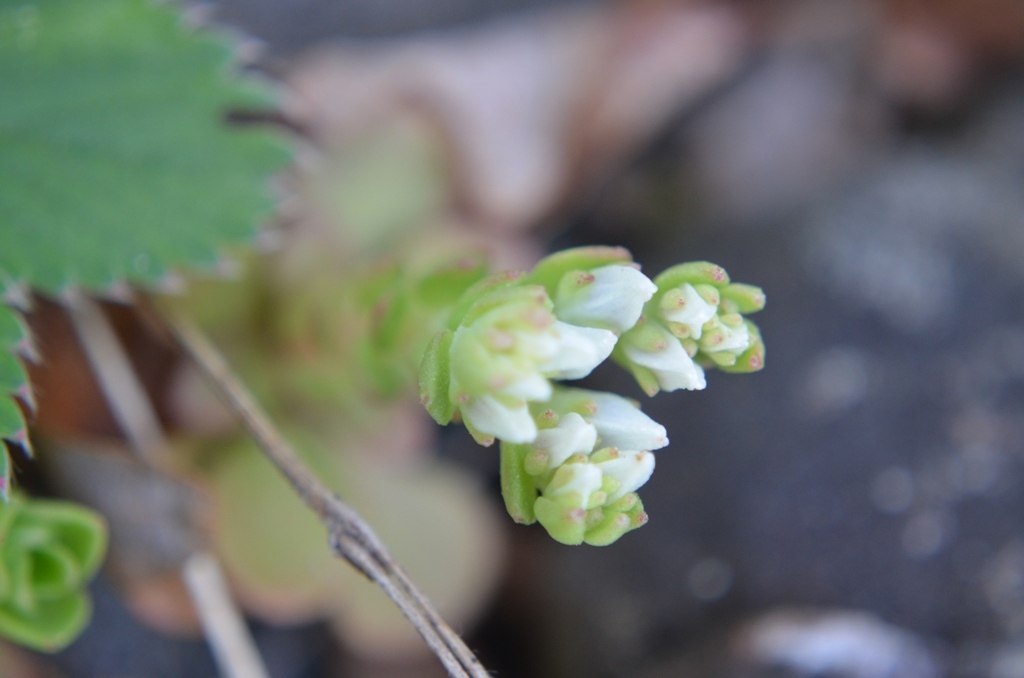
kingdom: Plantae
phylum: Tracheophyta
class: Magnoliopsida
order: Saxifragales
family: Crassulaceae
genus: Sedum
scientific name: Sedum ternatum
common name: Wild stonecrop
